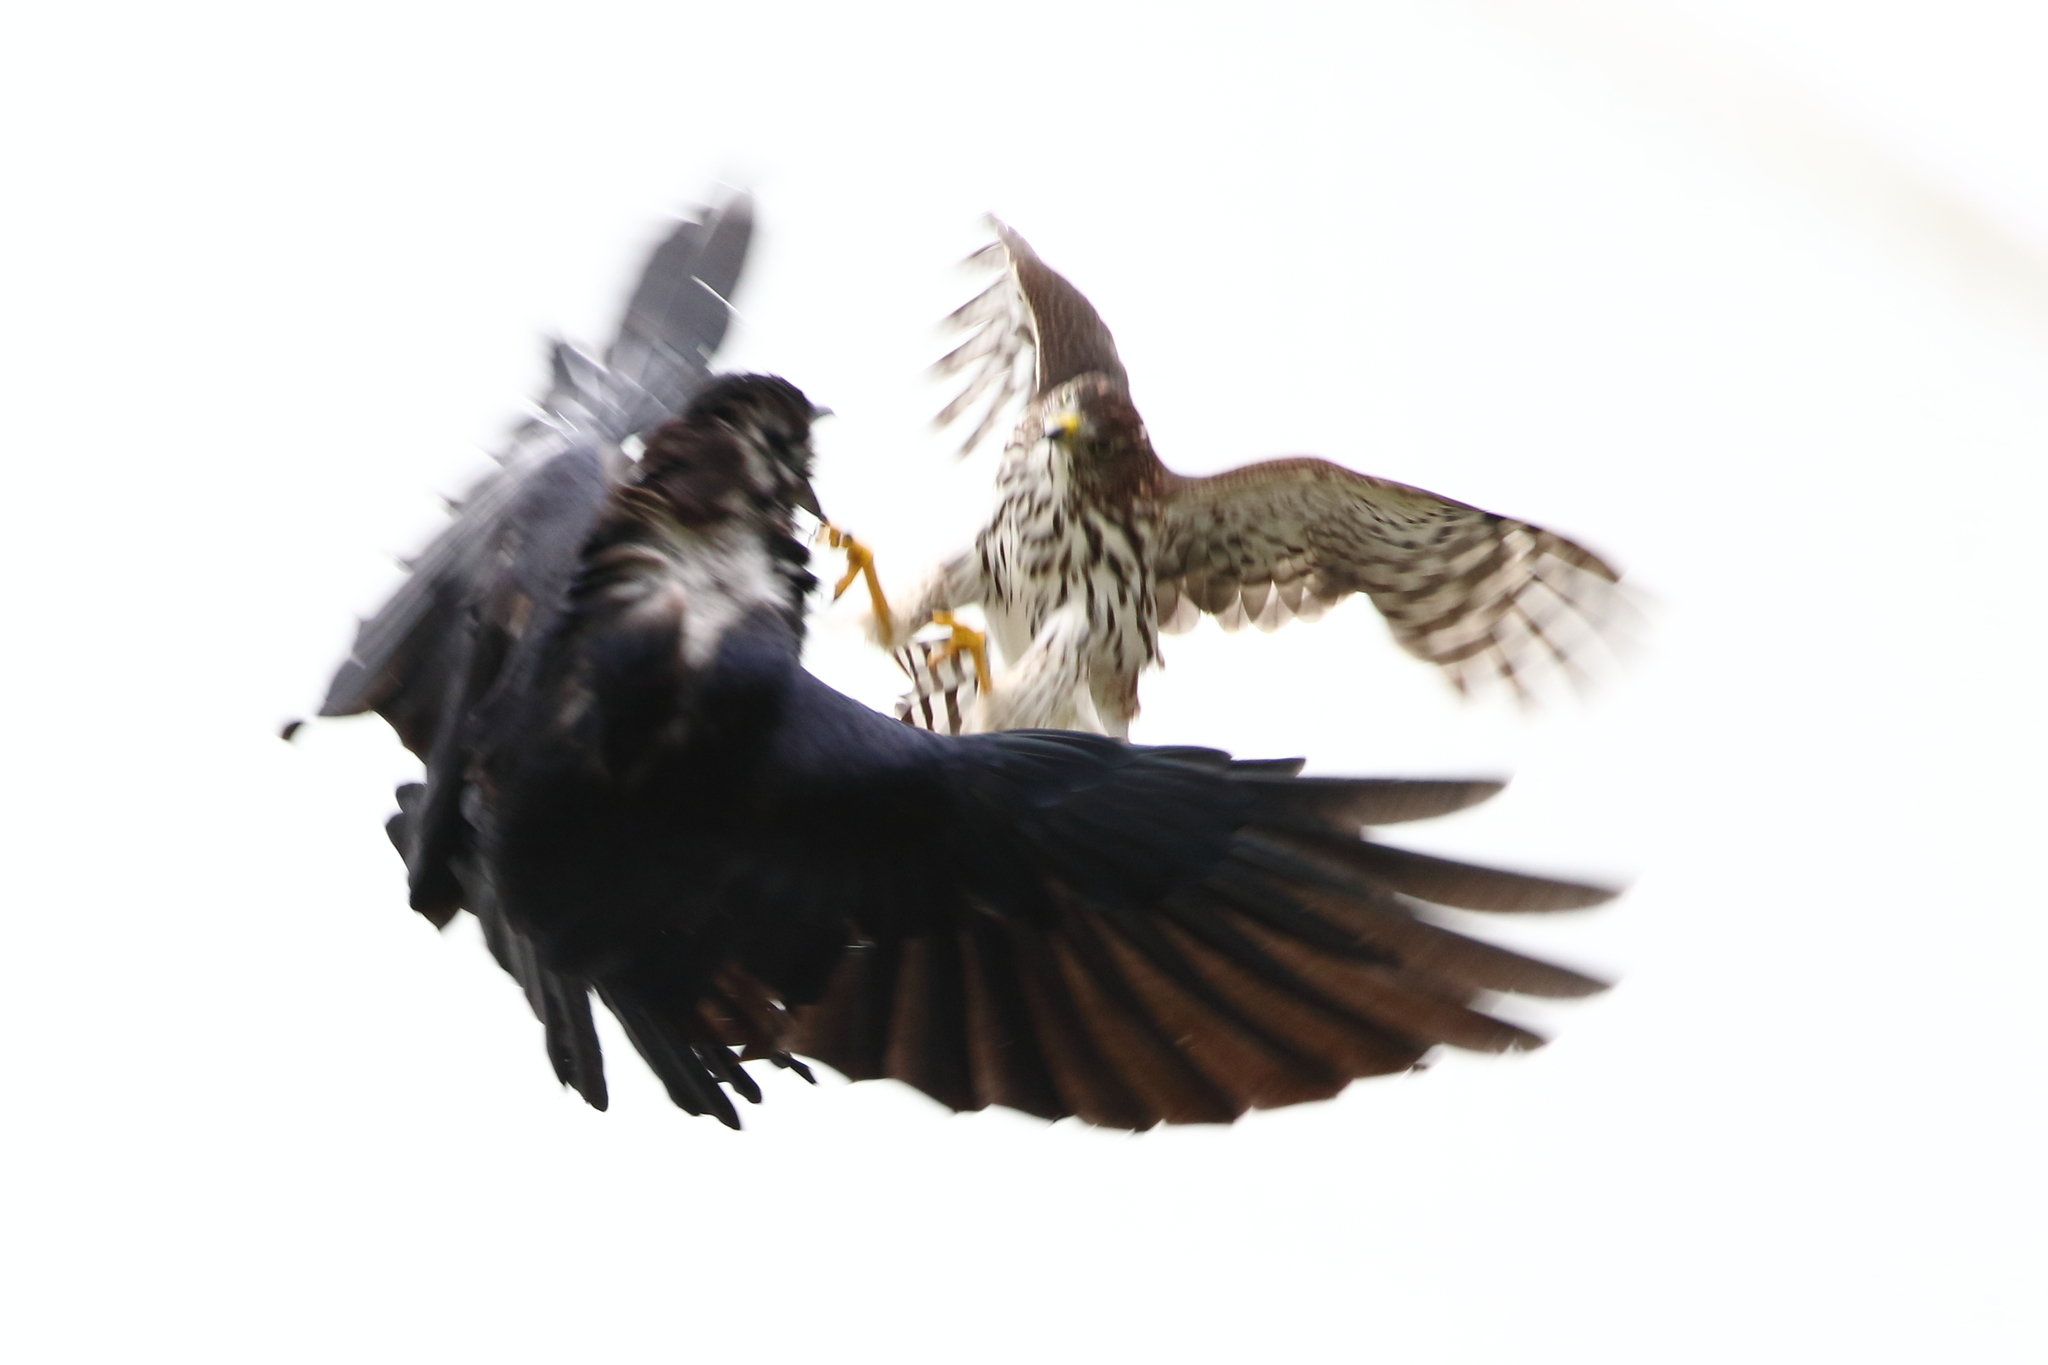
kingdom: Animalia
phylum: Chordata
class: Aves
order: Accipitriformes
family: Accipitridae
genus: Accipiter
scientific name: Accipiter cooperii
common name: Cooper's hawk
